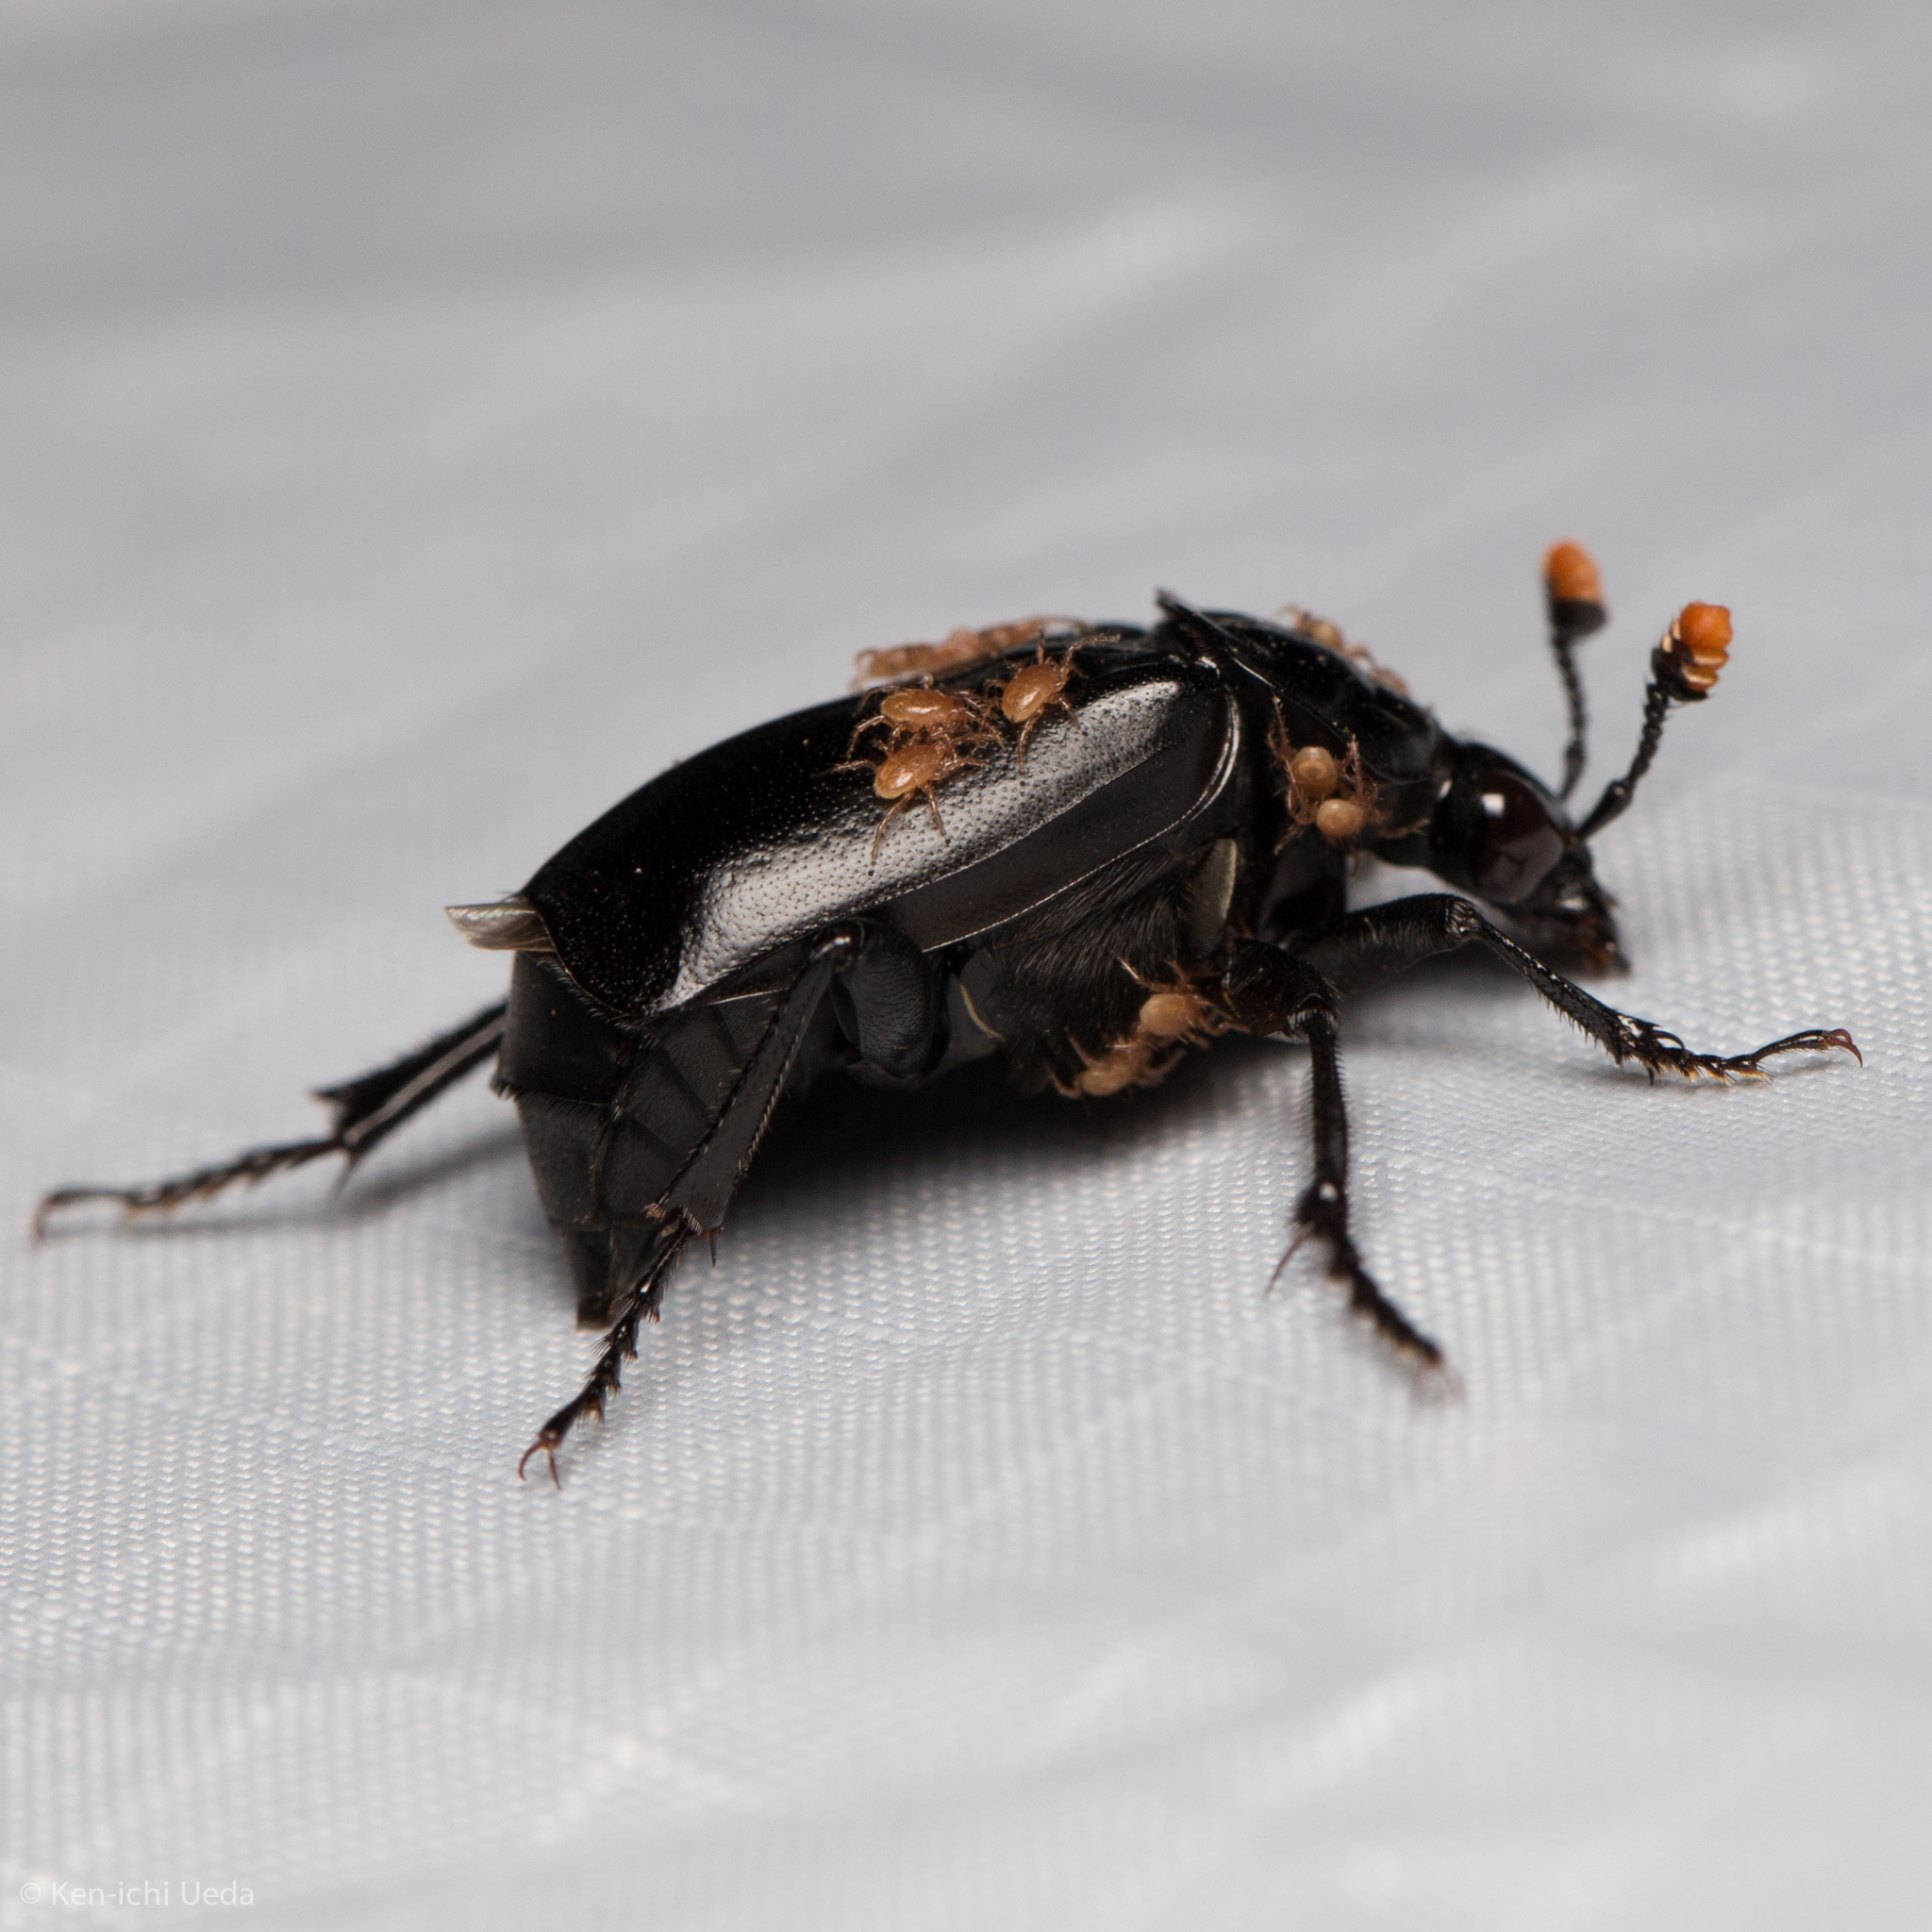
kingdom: Animalia
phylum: Arthropoda
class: Insecta
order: Coleoptera
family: Staphylinidae
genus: Nicrophorus
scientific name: Nicrophorus nigrita
